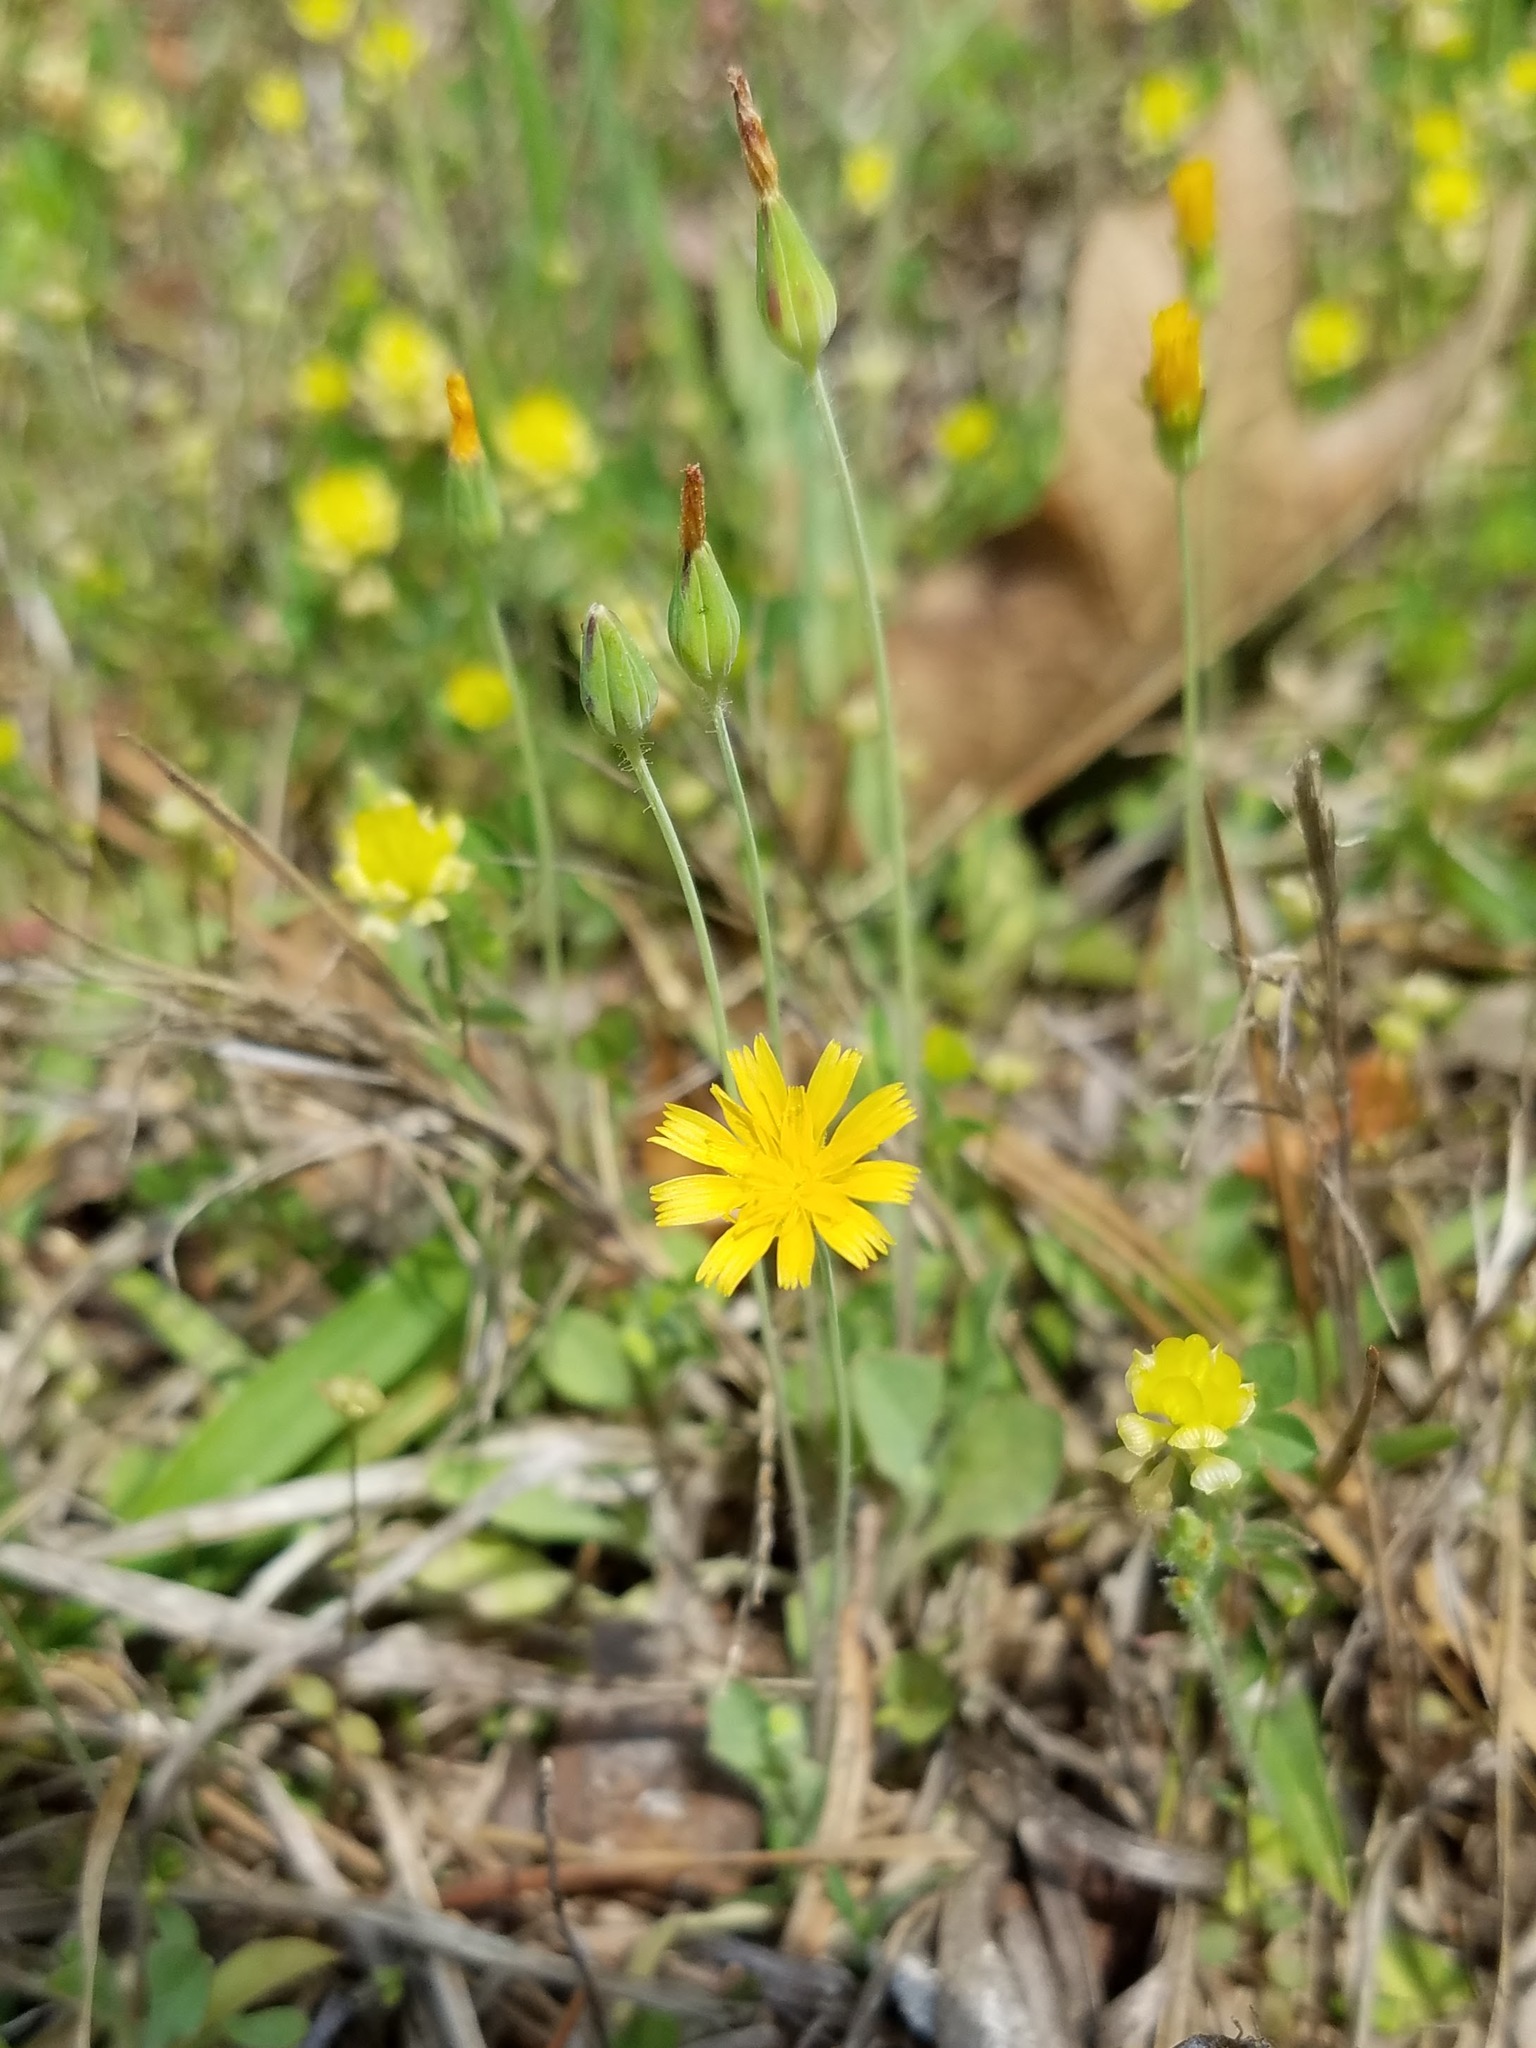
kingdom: Plantae
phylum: Tracheophyta
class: Magnoliopsida
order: Asterales
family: Asteraceae
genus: Krigia
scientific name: Krigia virginica
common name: Virginia dwarf-dandelion
